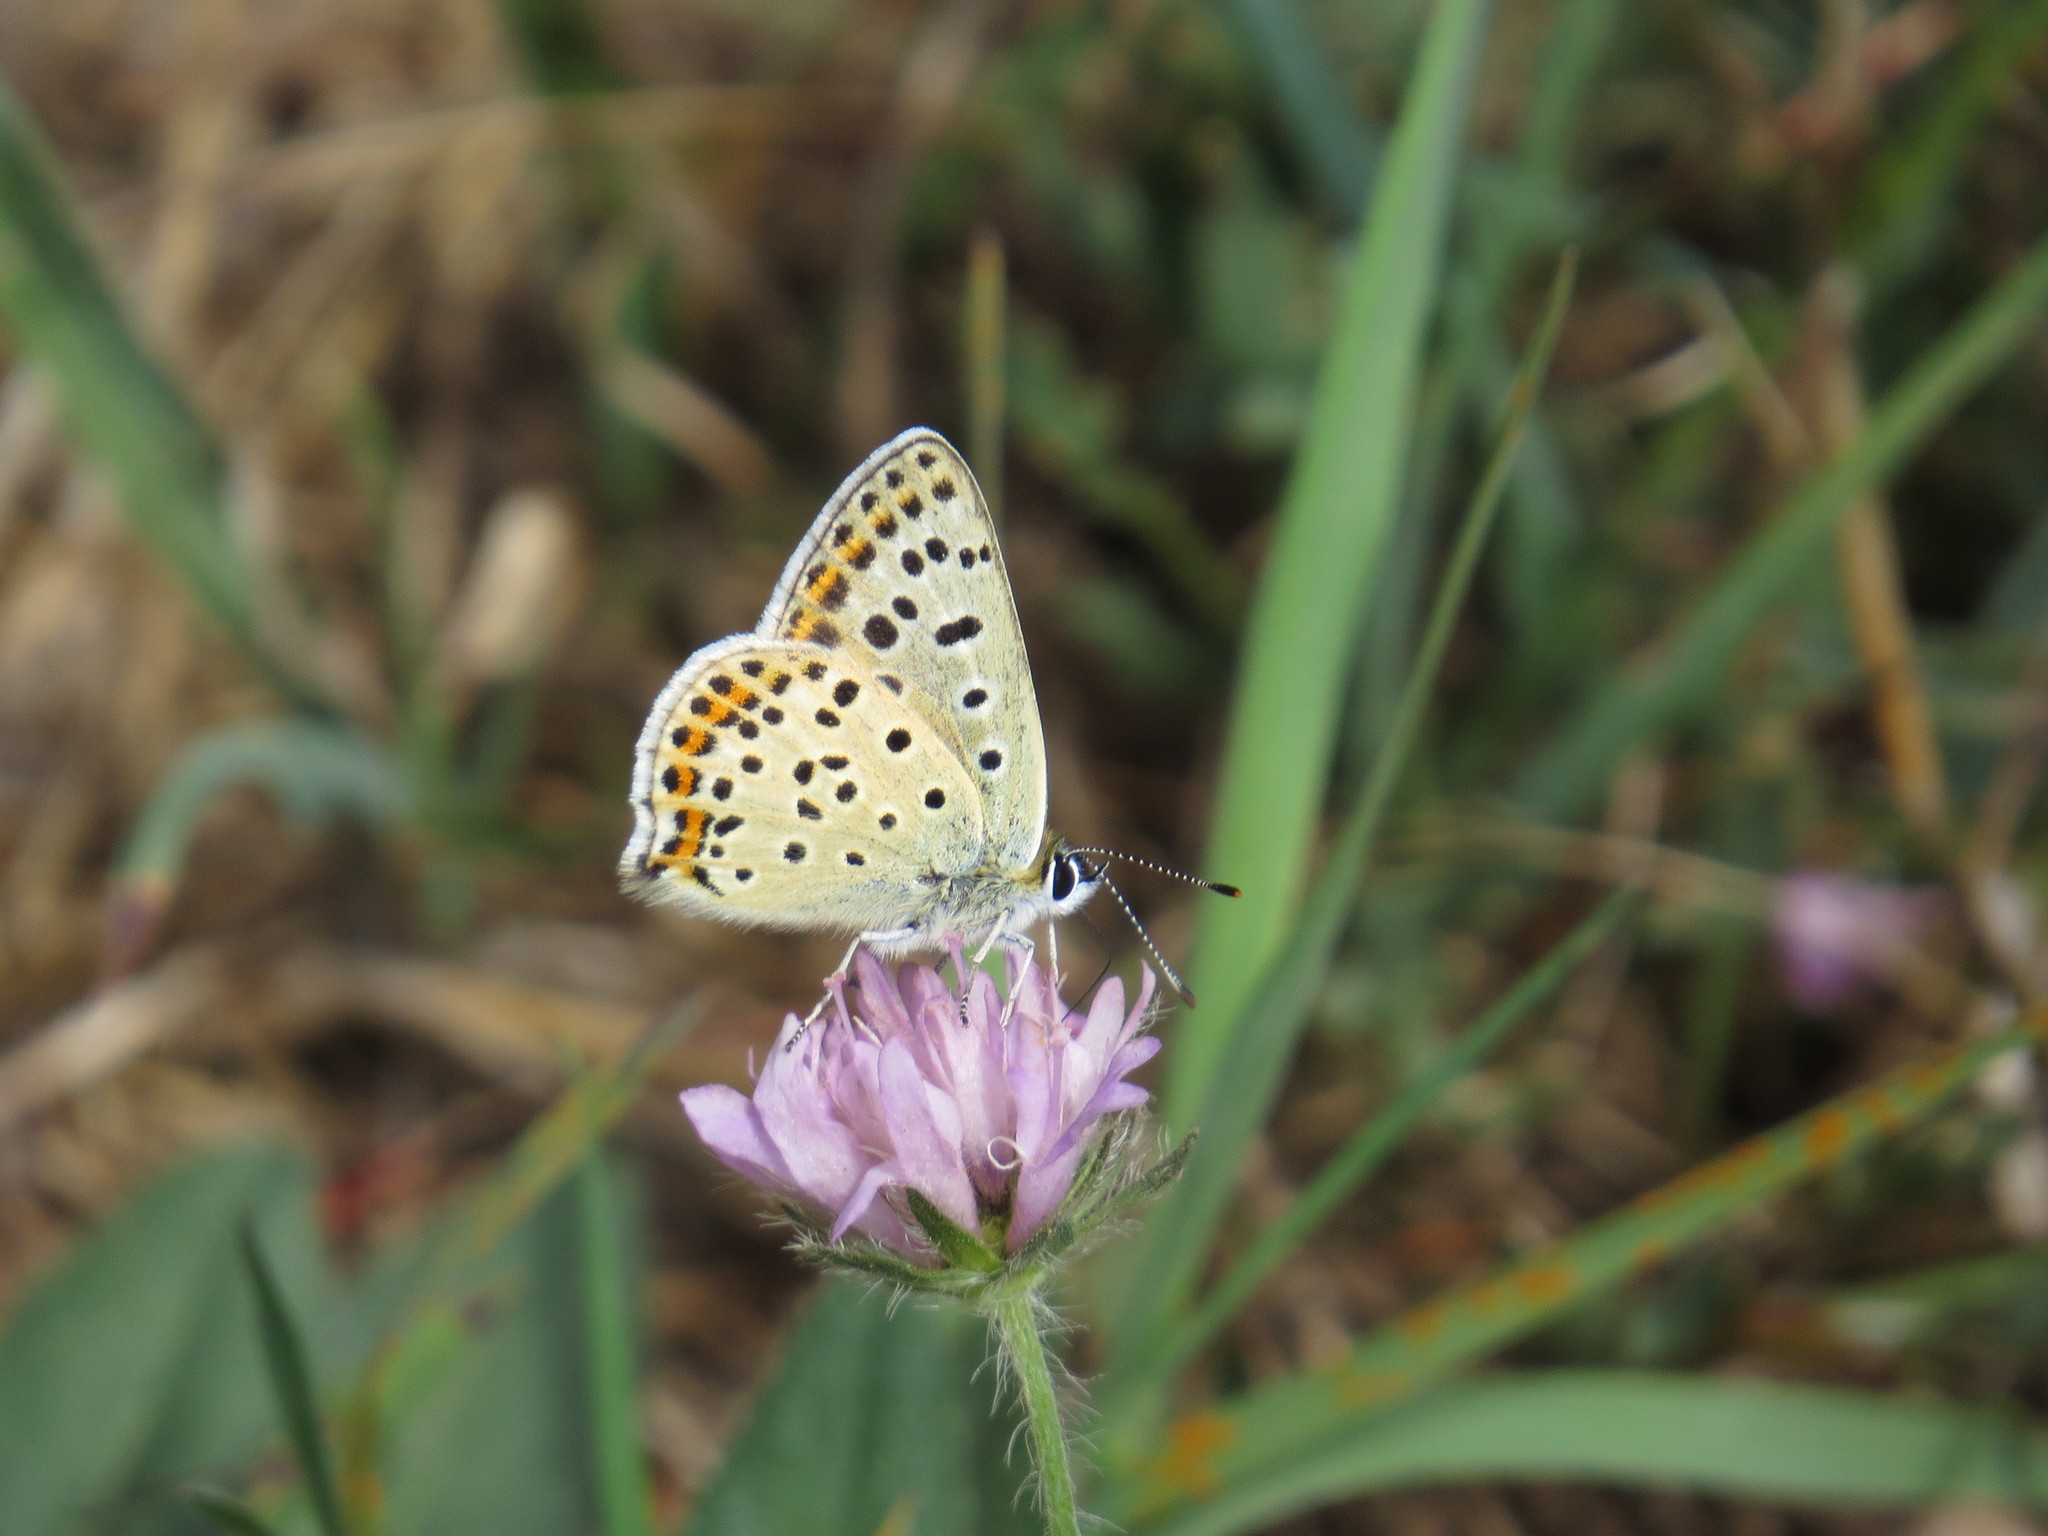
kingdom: Animalia
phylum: Arthropoda
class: Insecta
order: Lepidoptera
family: Lycaenidae
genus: Loweia
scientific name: Loweia tityrus
